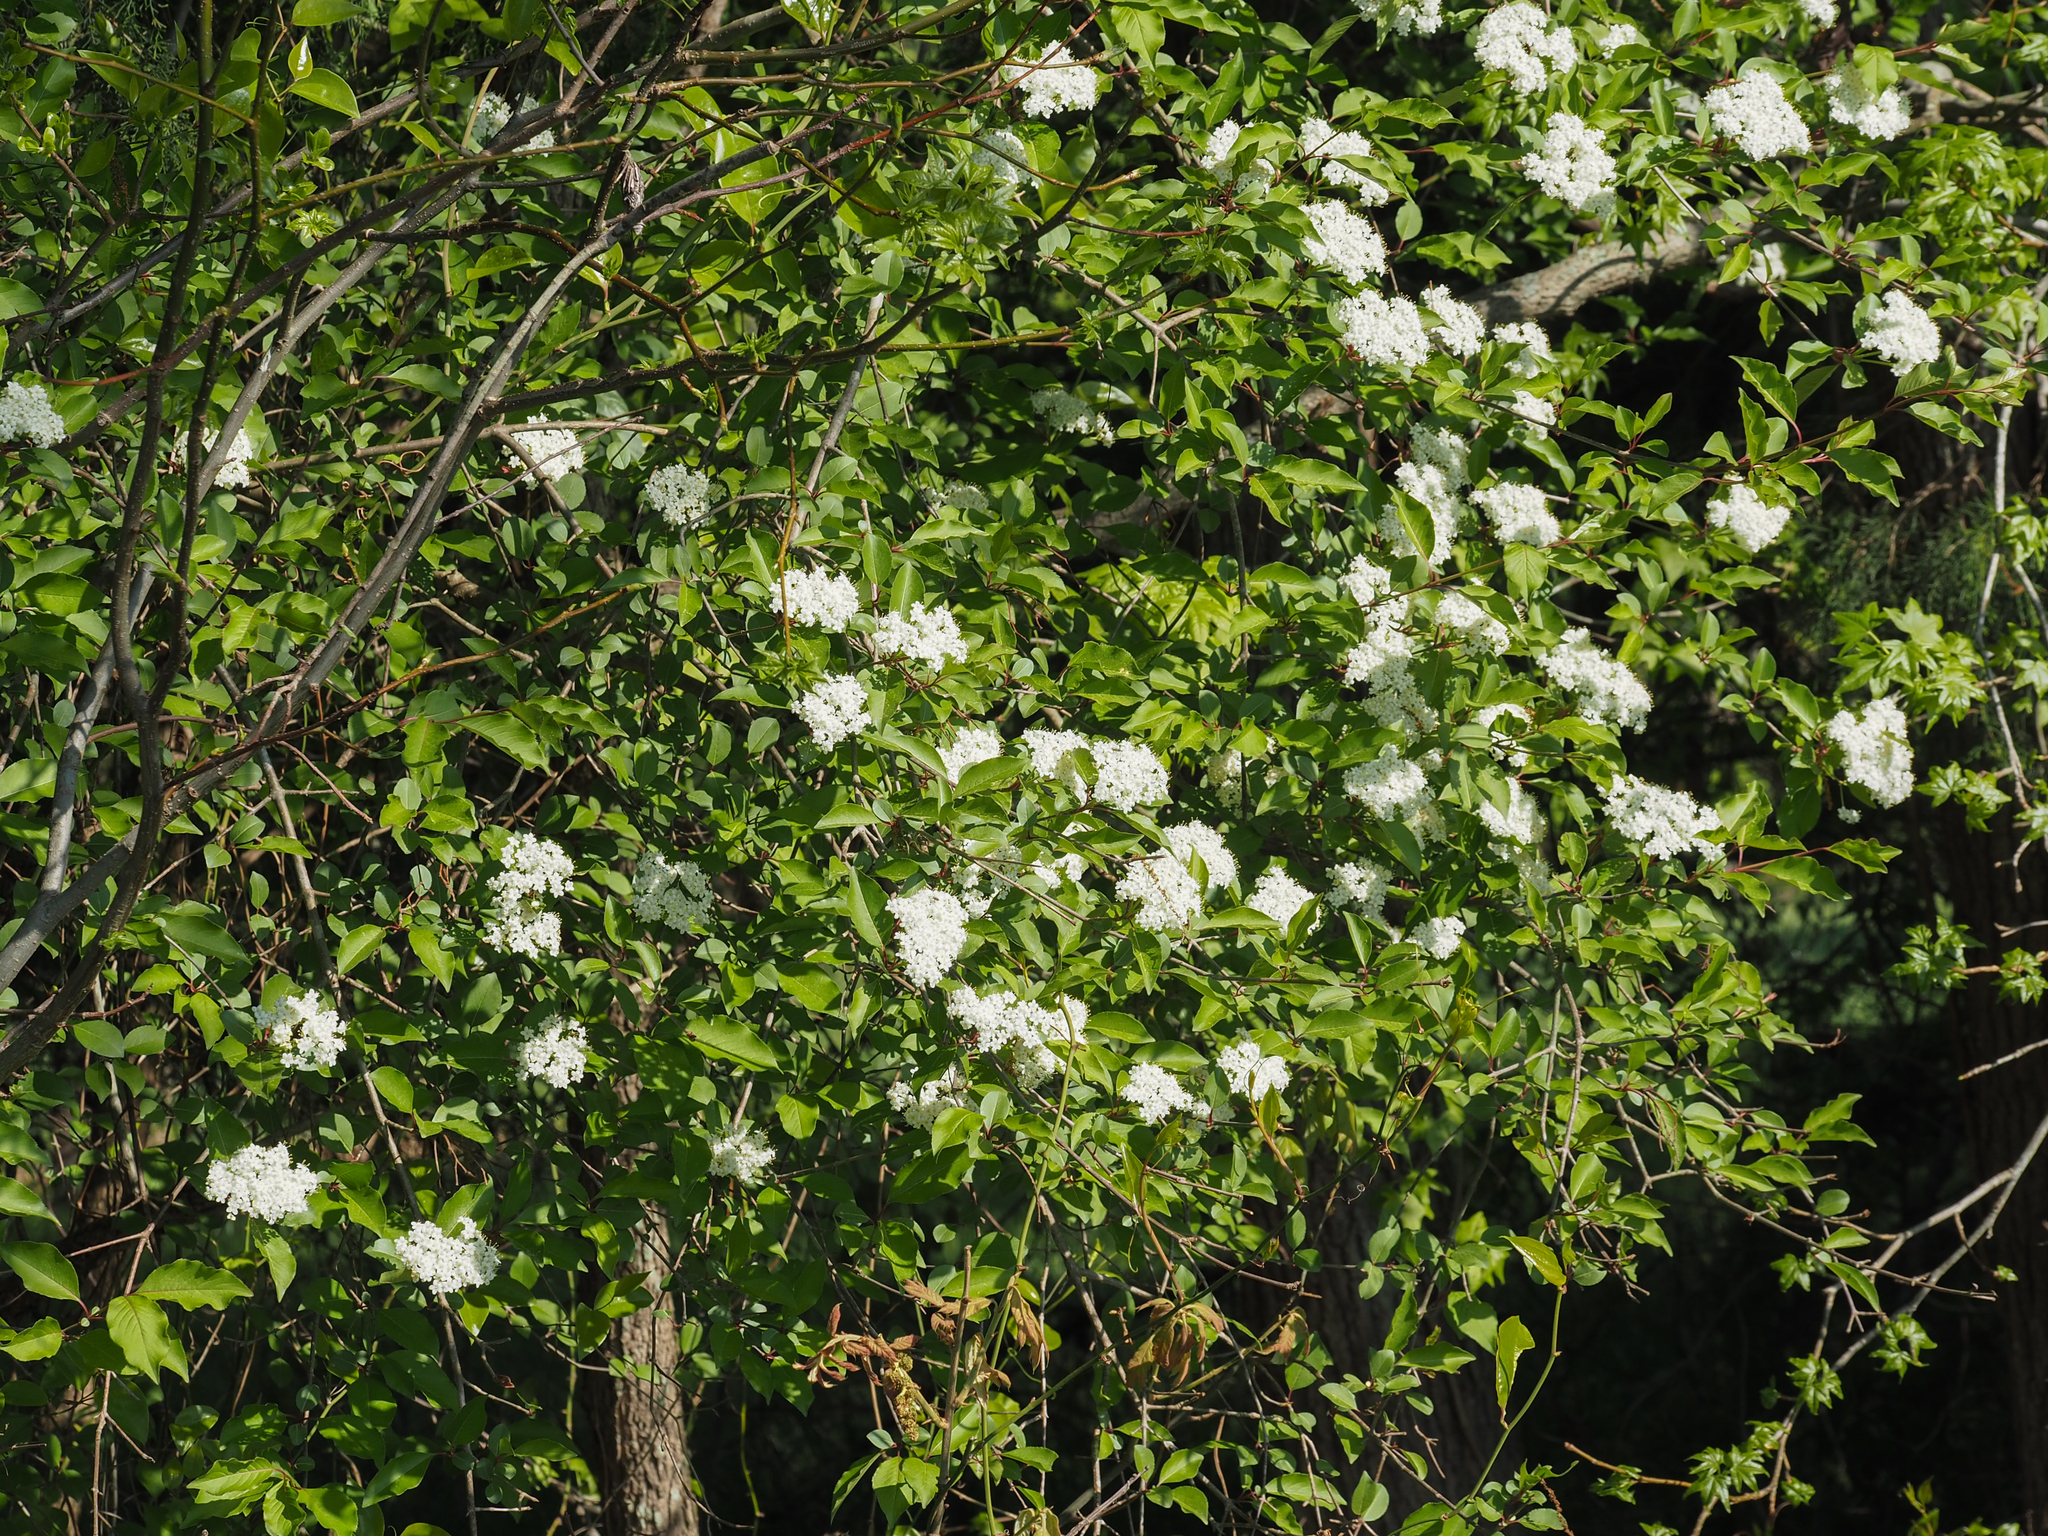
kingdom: Plantae
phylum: Tracheophyta
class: Magnoliopsida
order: Dipsacales
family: Viburnaceae
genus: Viburnum
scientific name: Viburnum prunifolium
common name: Black haw
